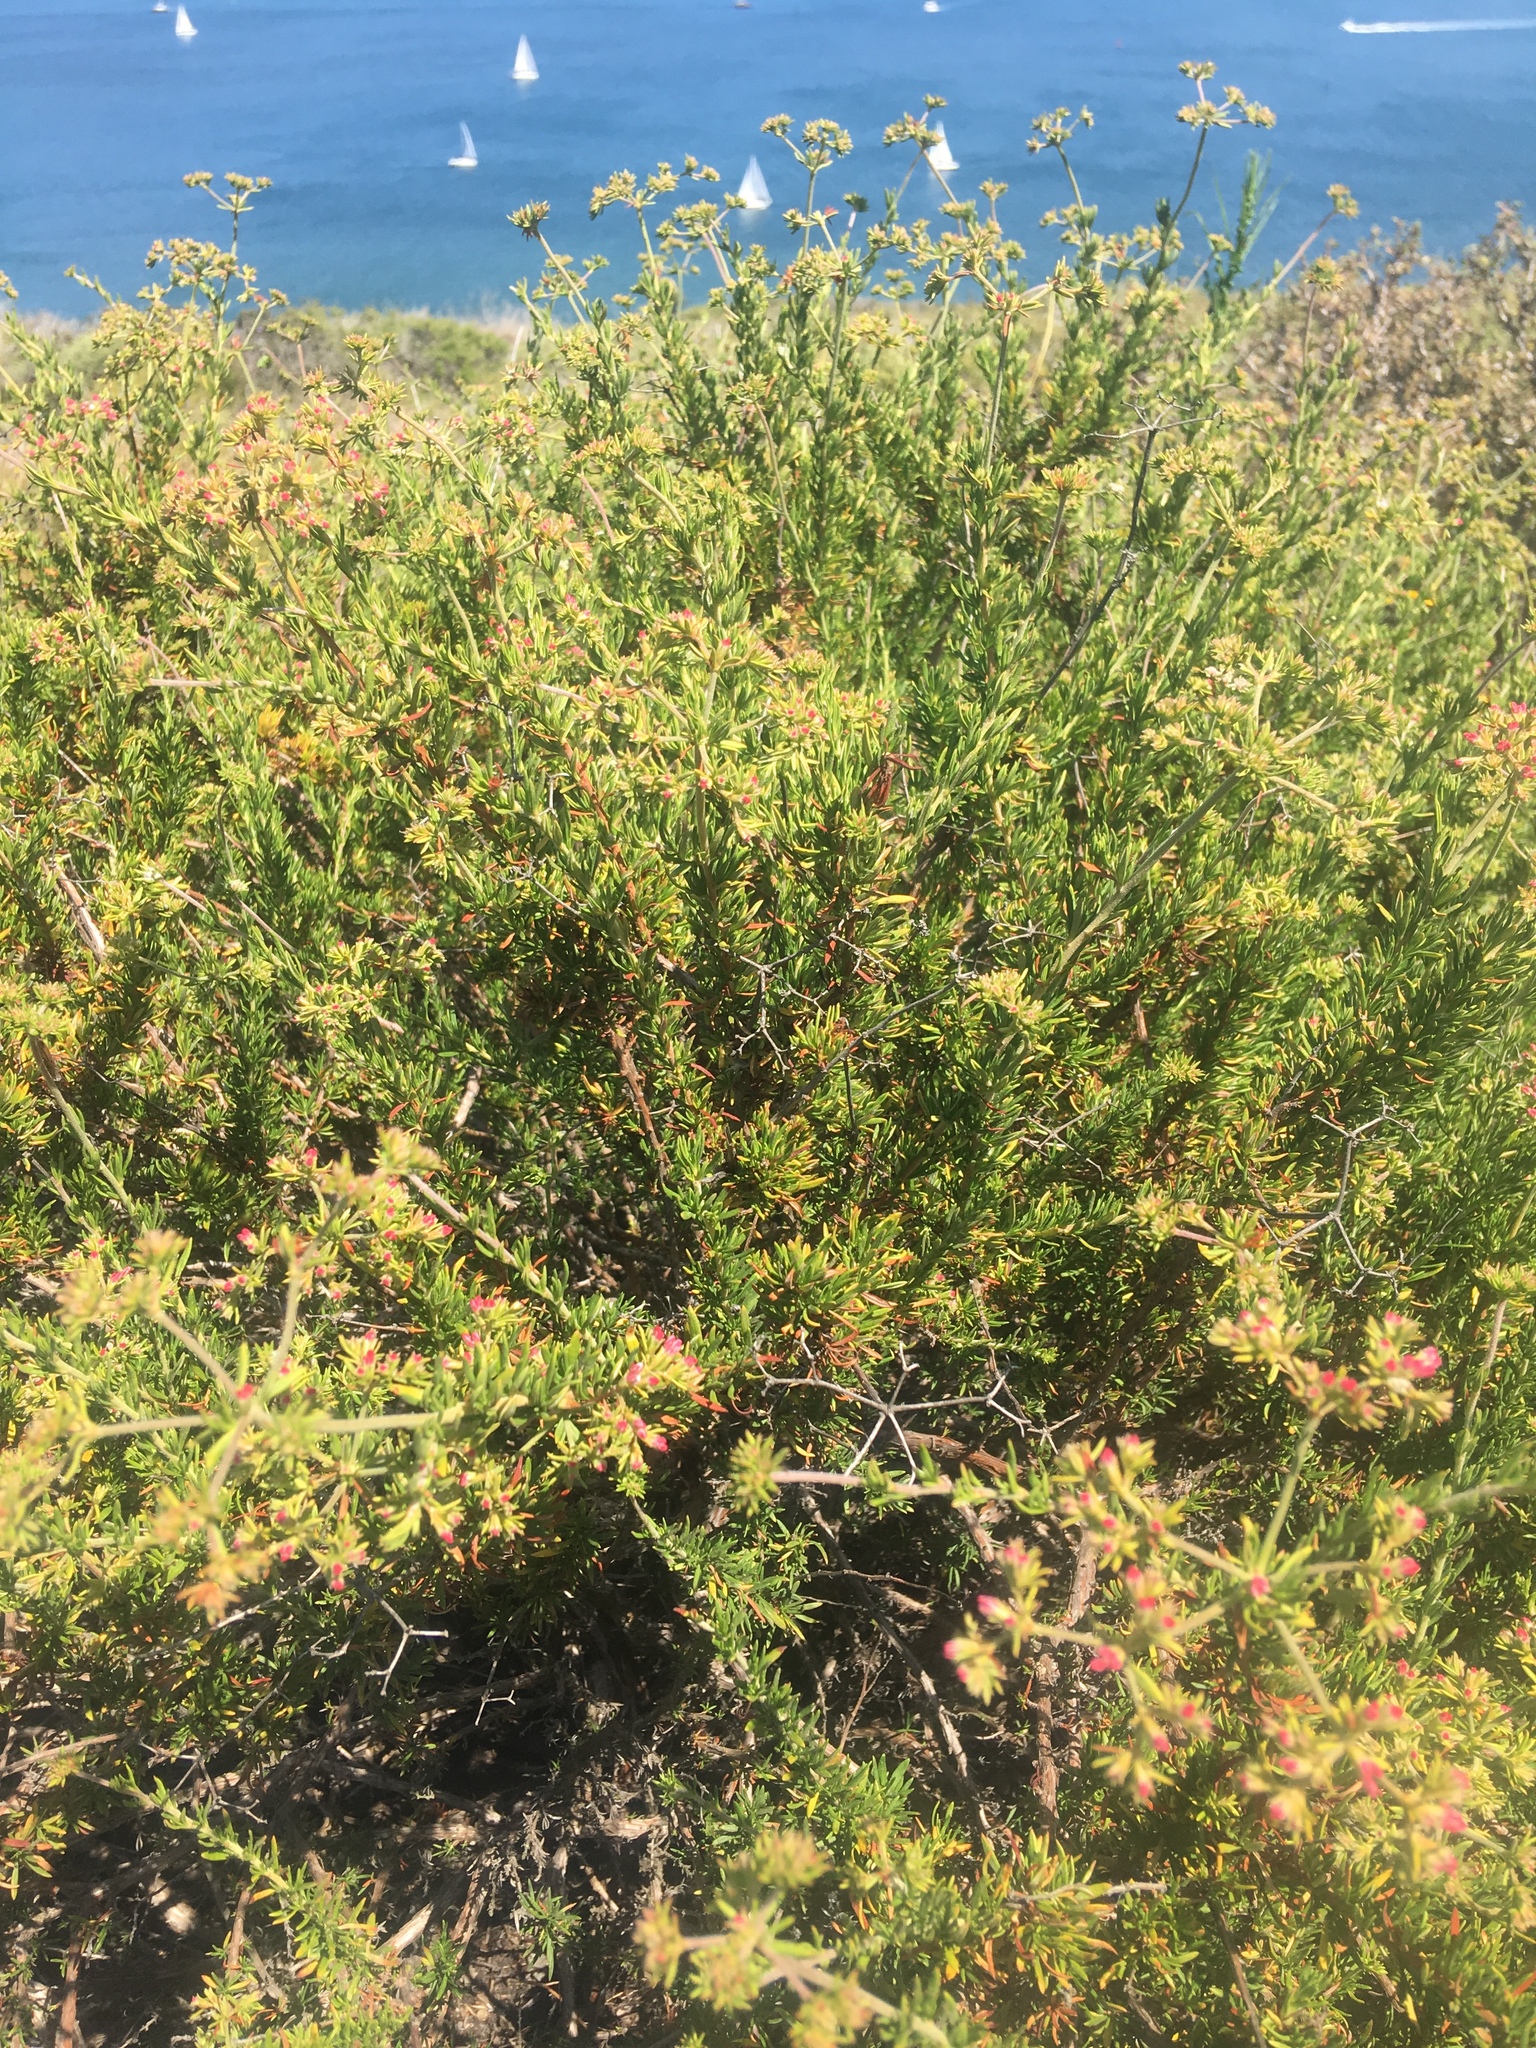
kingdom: Plantae
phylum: Tracheophyta
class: Magnoliopsida
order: Caryophyllales
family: Polygonaceae
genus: Eriogonum
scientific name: Eriogonum fasciculatum
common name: California wild buckwheat
